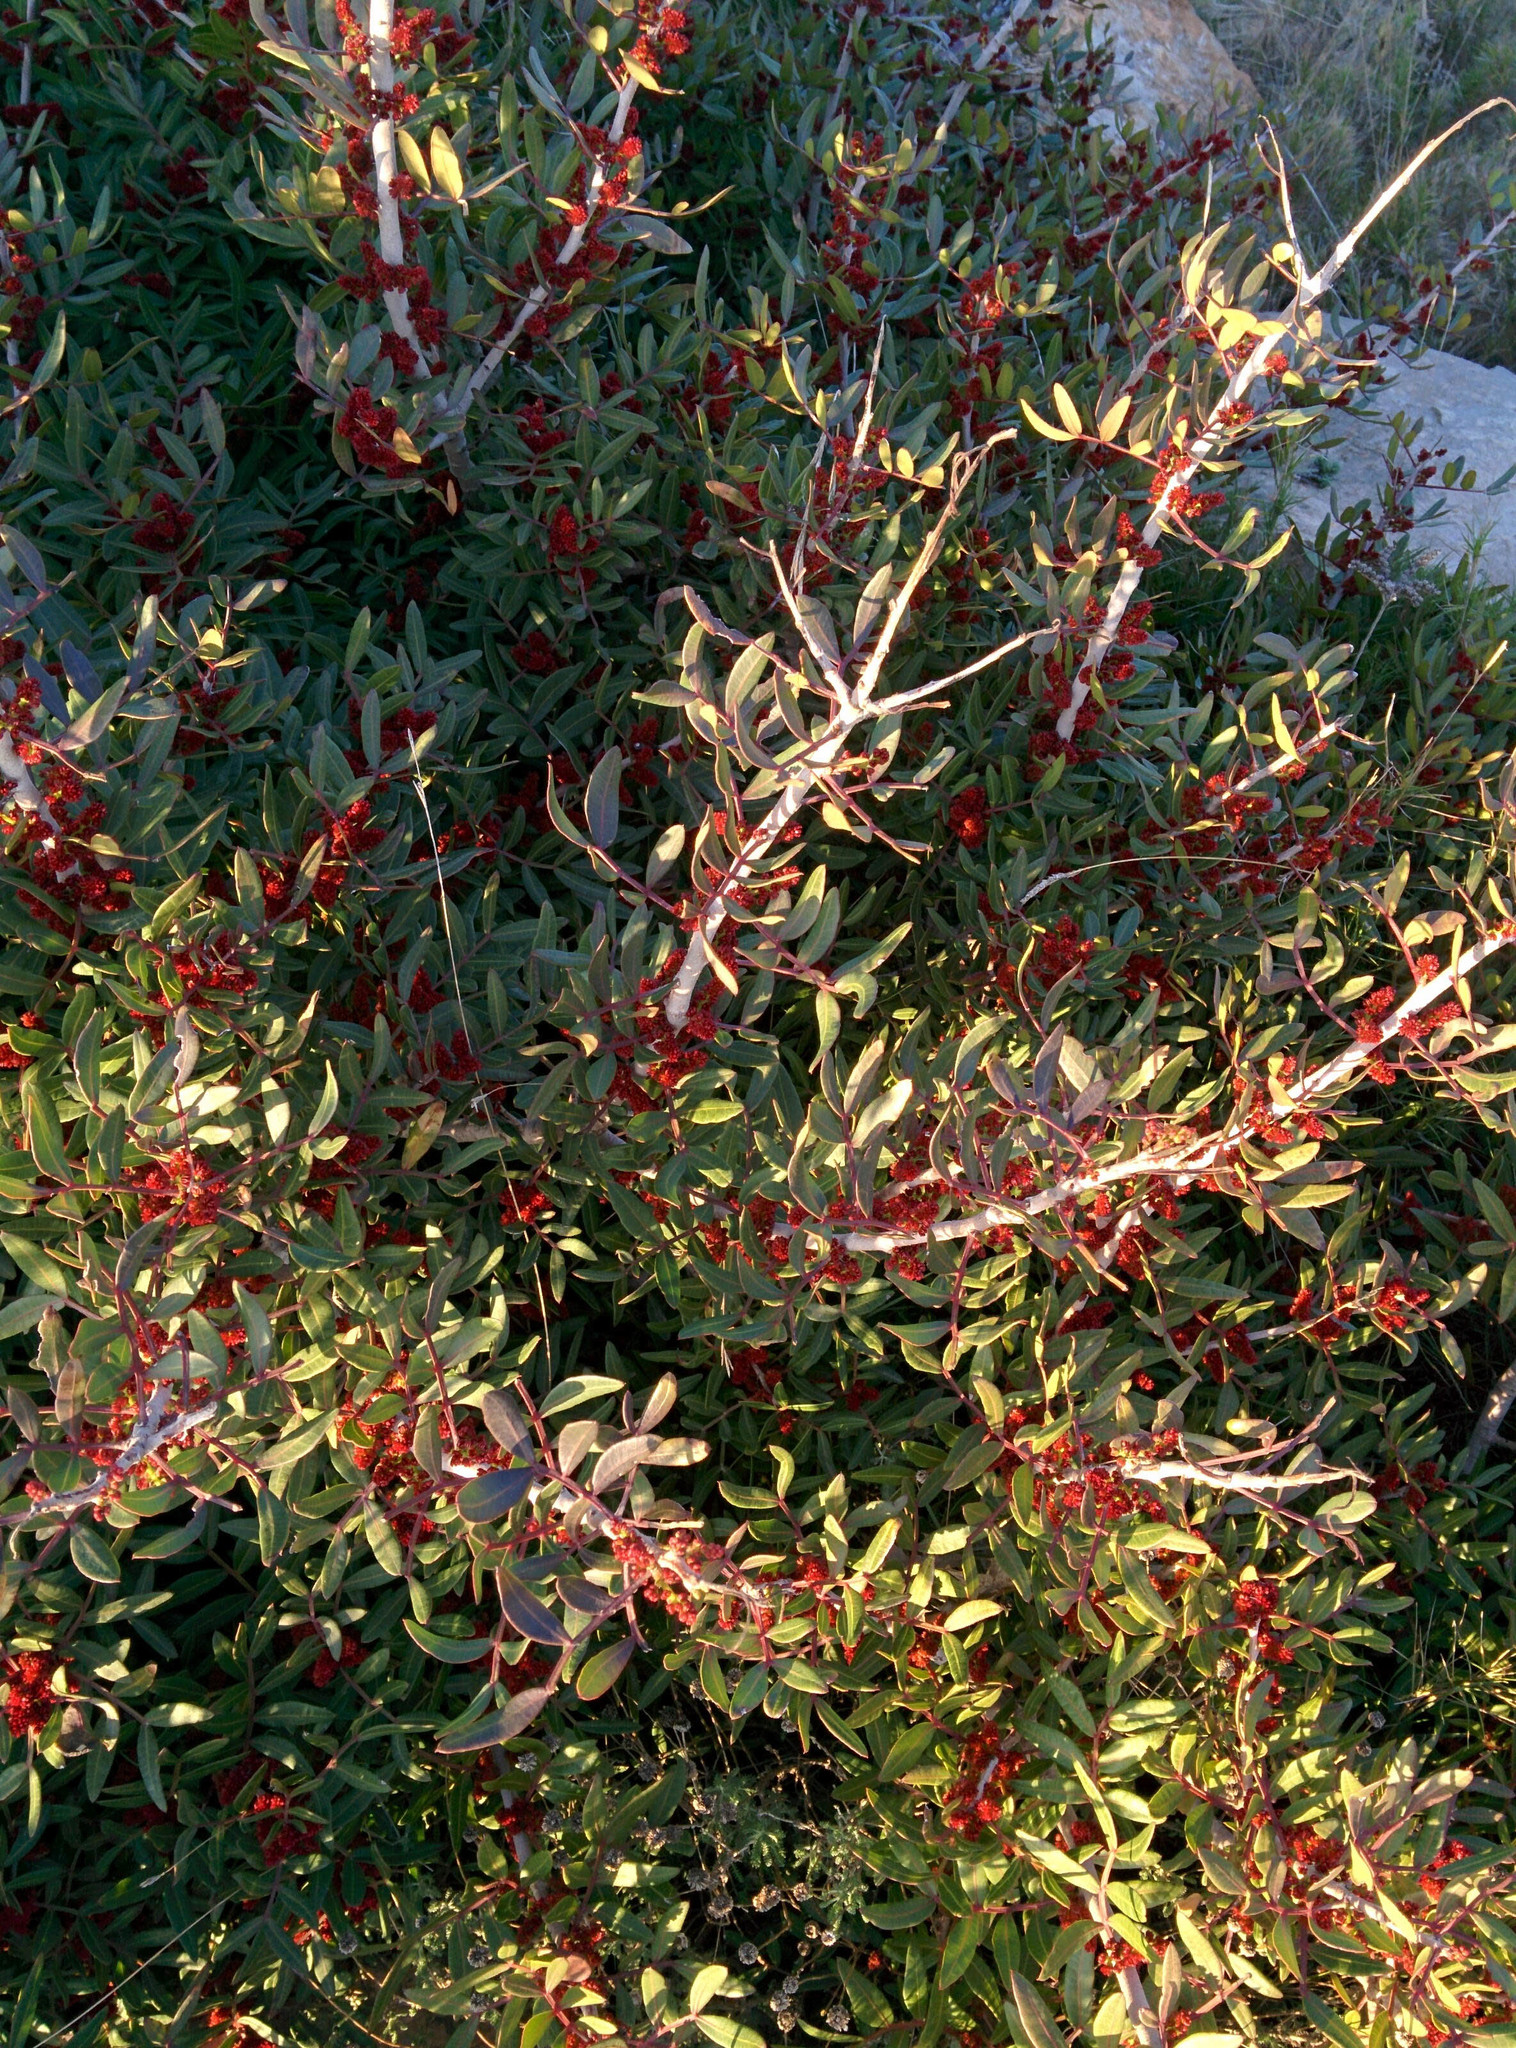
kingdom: Plantae
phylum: Tracheophyta
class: Magnoliopsida
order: Sapindales
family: Anacardiaceae
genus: Pistacia
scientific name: Pistacia lentiscus
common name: Lentisk
